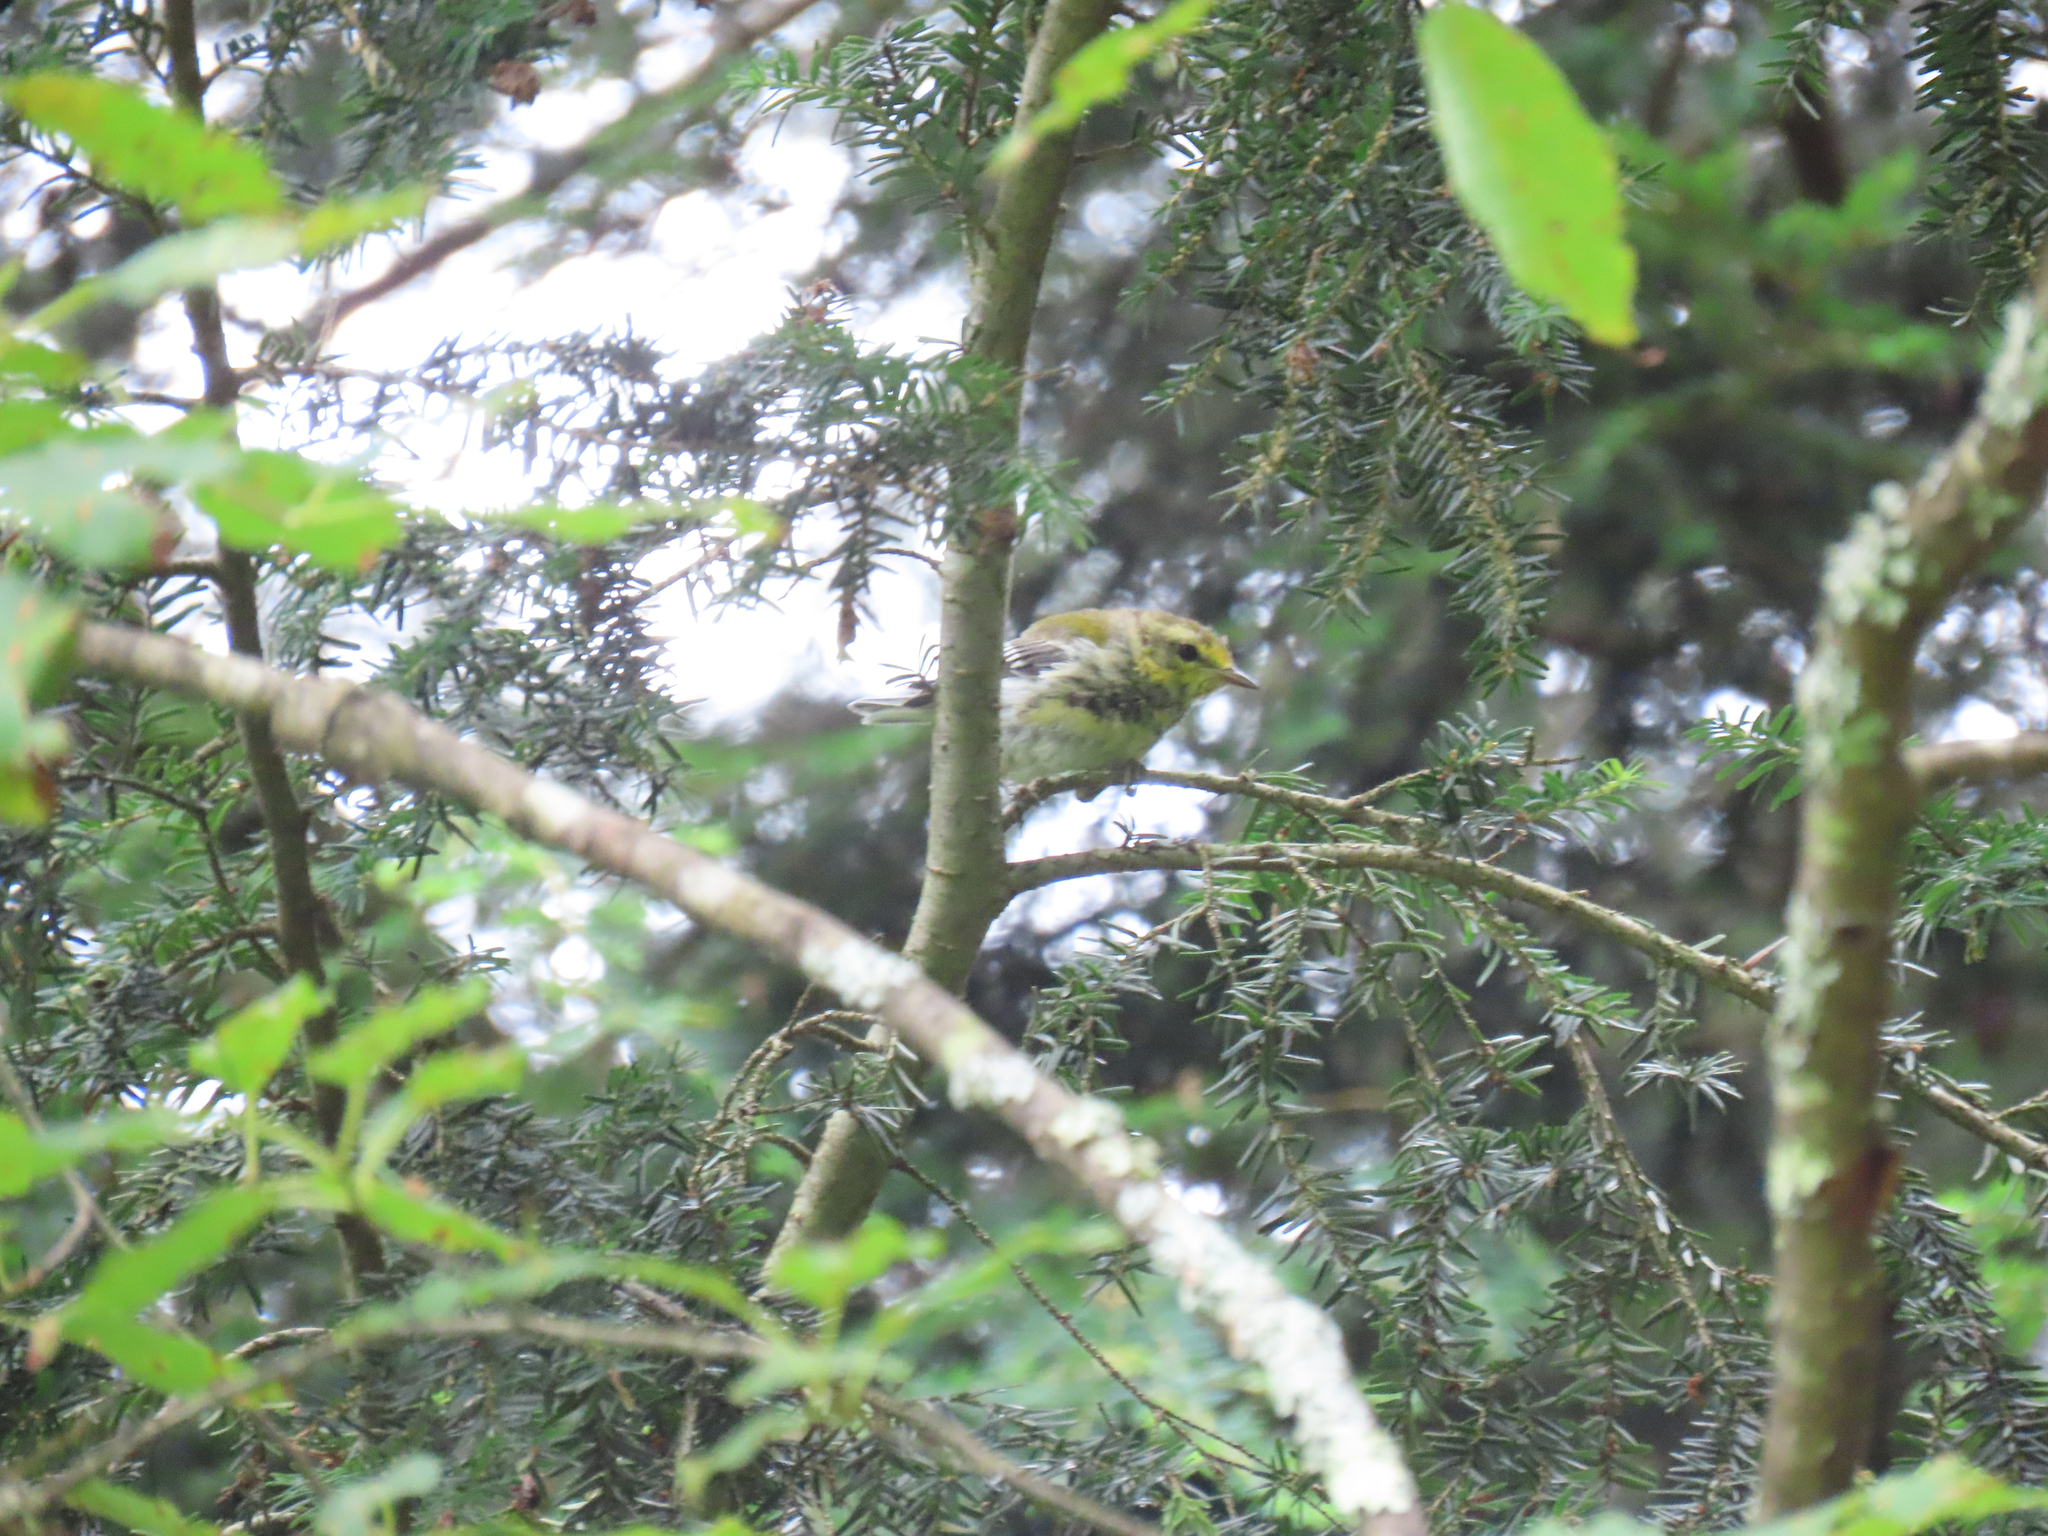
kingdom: Animalia
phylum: Chordata
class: Aves
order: Passeriformes
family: Parulidae
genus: Setophaga
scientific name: Setophaga virens
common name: Black-throated green warbler
